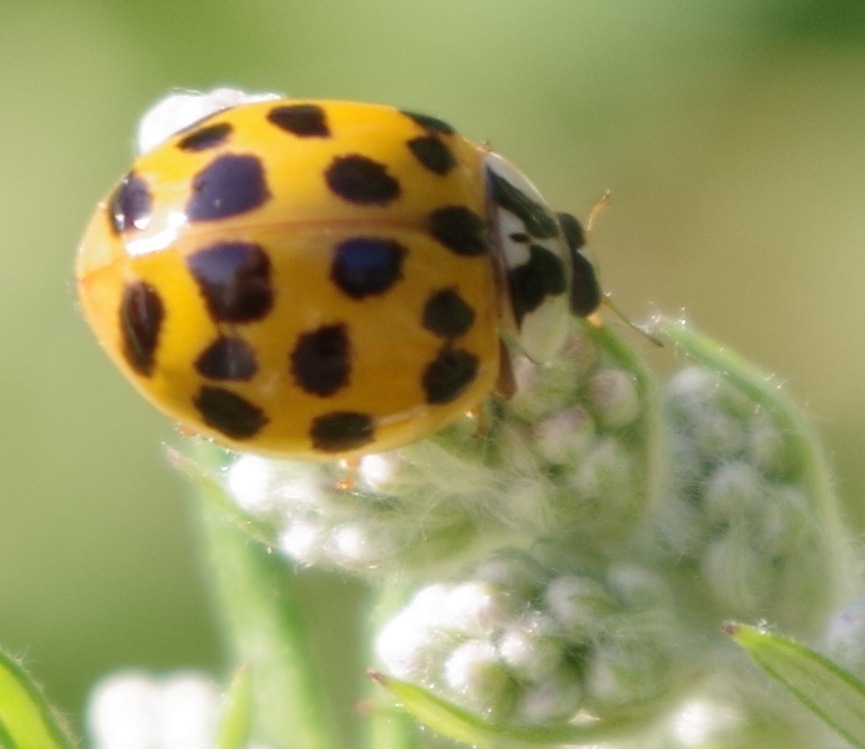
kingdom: Animalia
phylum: Arthropoda
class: Insecta
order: Coleoptera
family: Coccinellidae
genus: Harmonia
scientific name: Harmonia axyridis
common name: Harlequin ladybird
